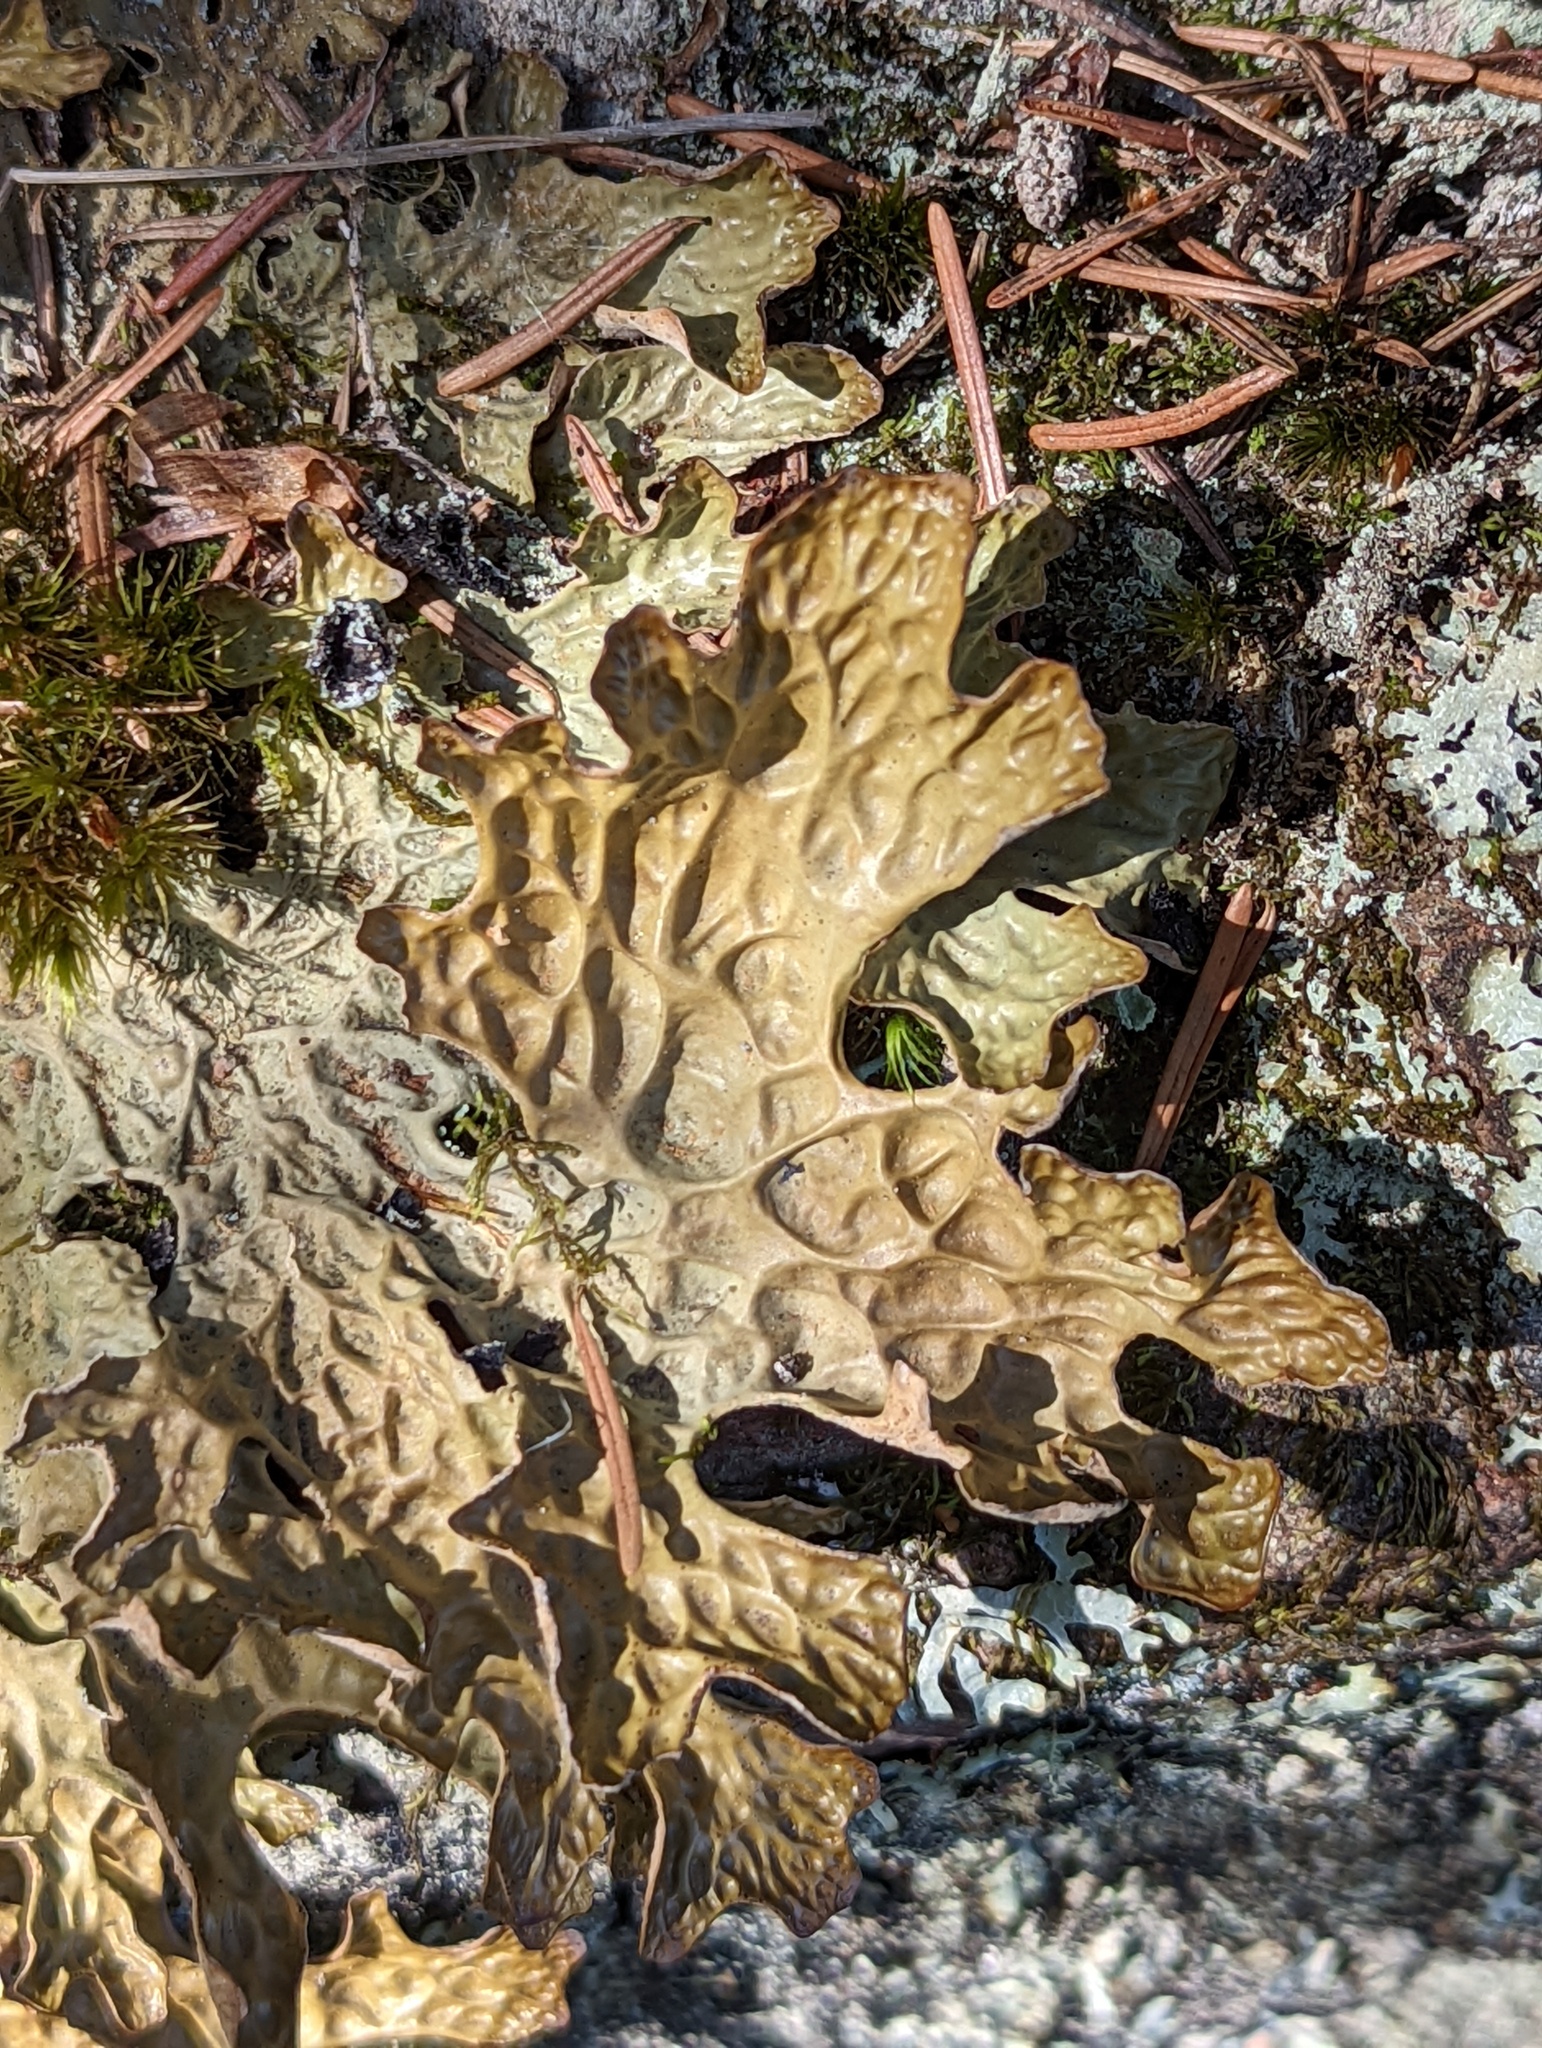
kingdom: Fungi
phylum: Ascomycota
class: Lecanoromycetes
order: Peltigerales
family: Lobariaceae
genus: Lobaria
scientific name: Lobaria pulmonaria
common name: Lungwort
